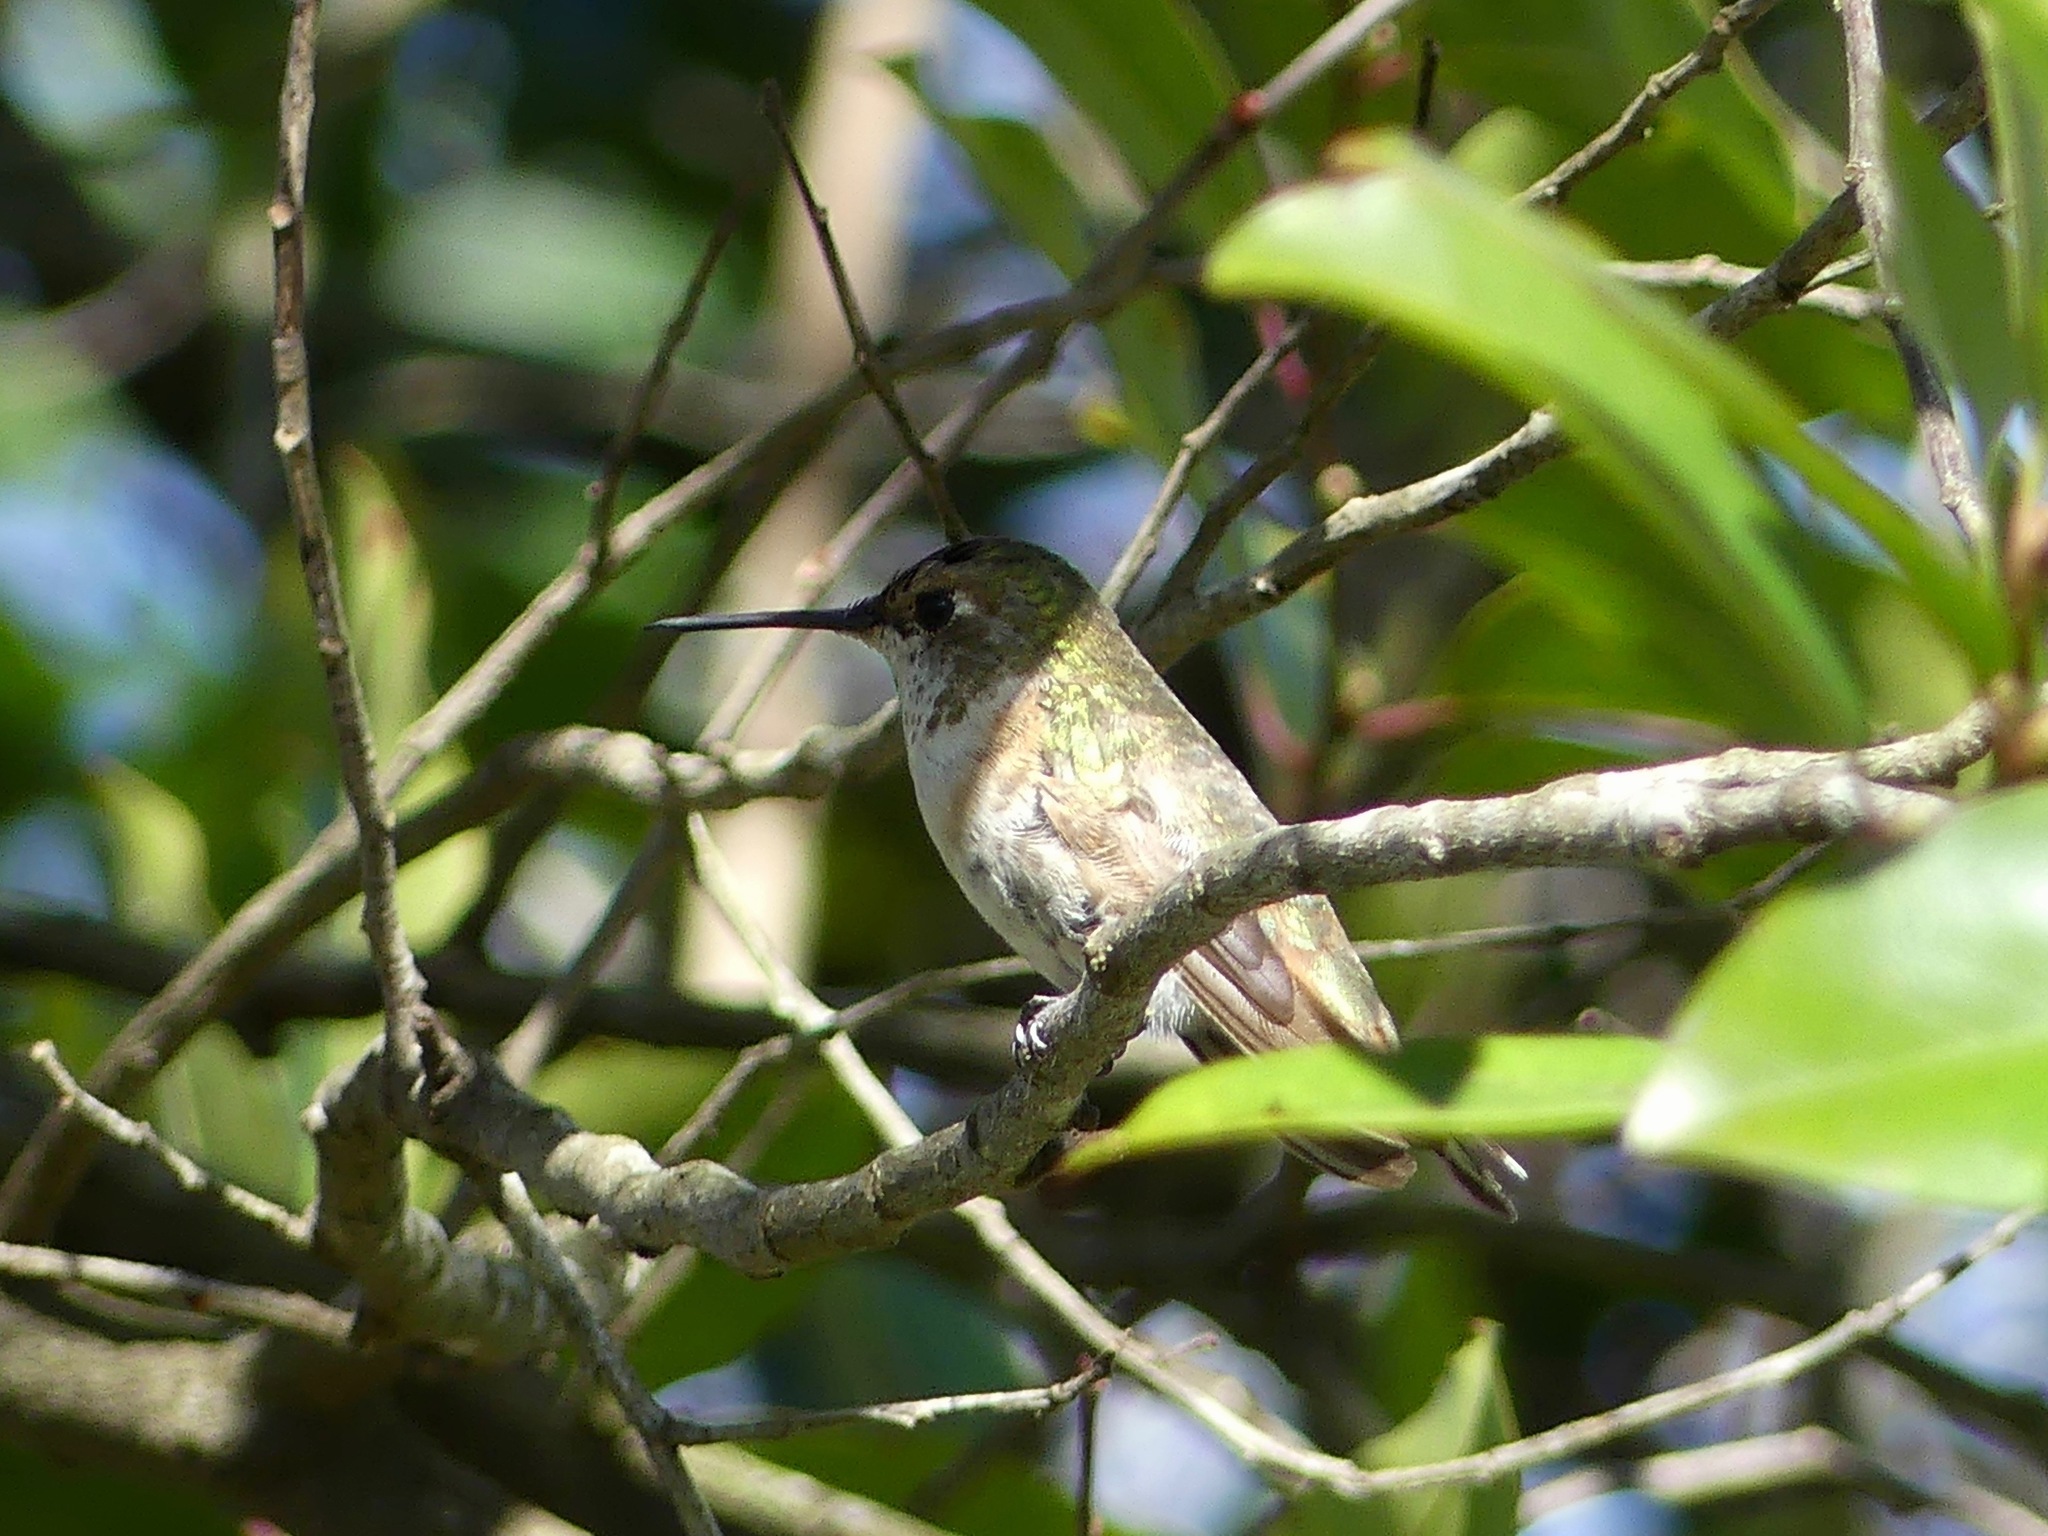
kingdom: Animalia
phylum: Chordata
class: Aves
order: Apodiformes
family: Trochilidae
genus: Selasphorus
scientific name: Selasphorus rufus
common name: Rufous hummingbird
